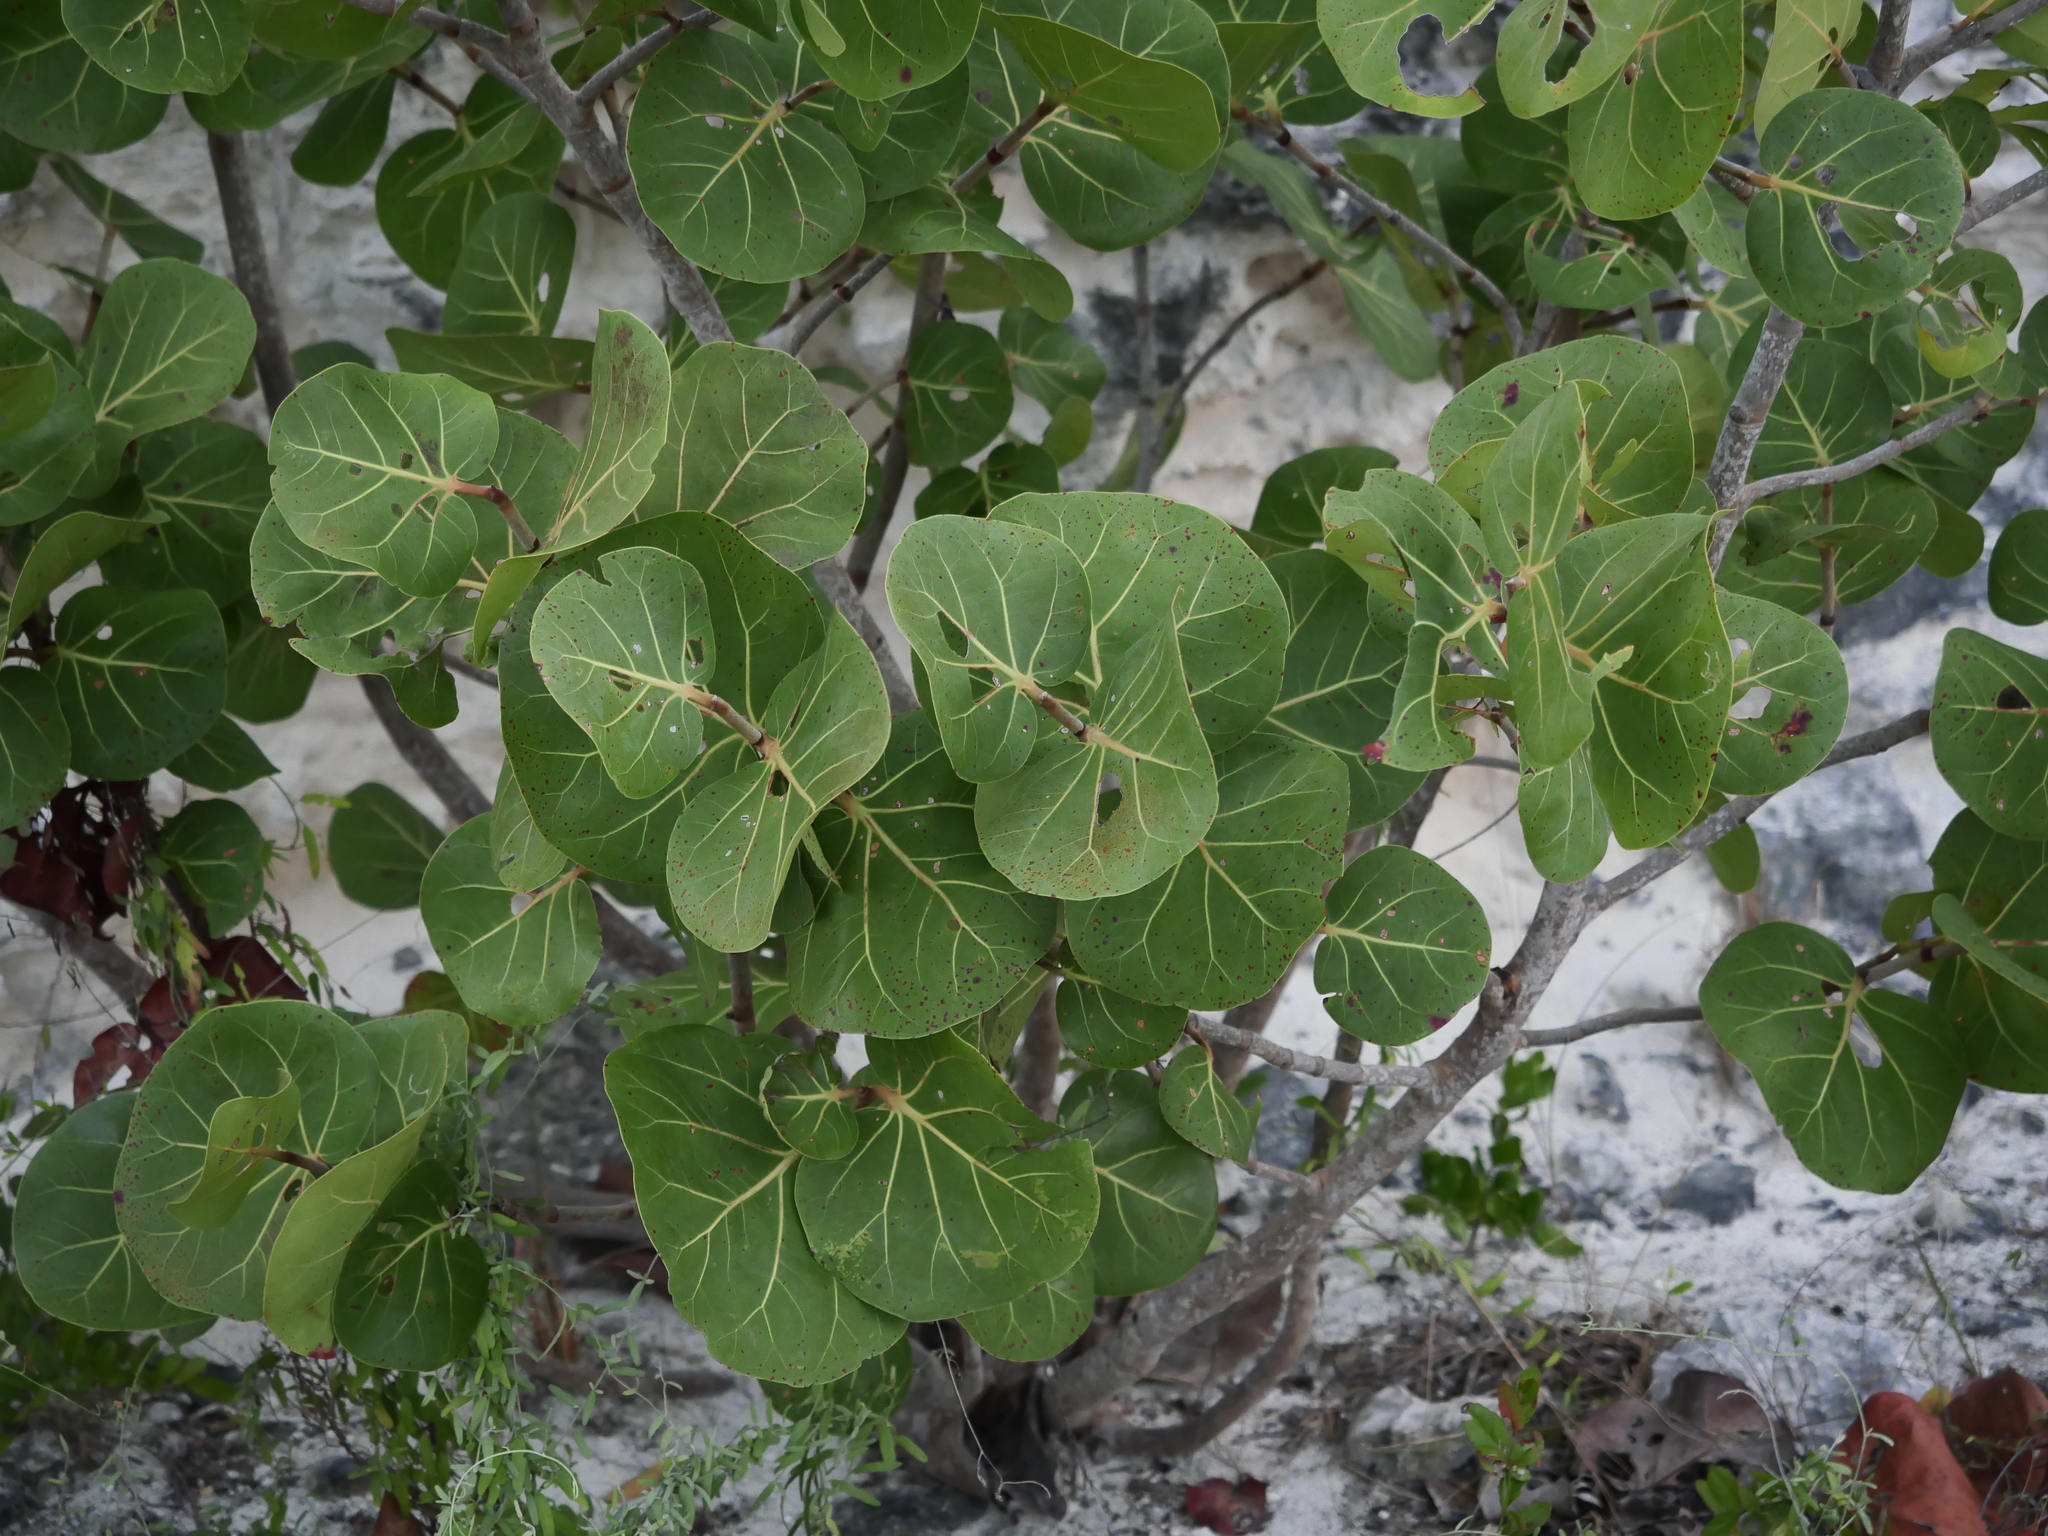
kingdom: Plantae
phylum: Tracheophyta
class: Magnoliopsida
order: Caryophyllales
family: Polygonaceae
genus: Coccoloba
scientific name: Coccoloba uvifera
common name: Seagrape
